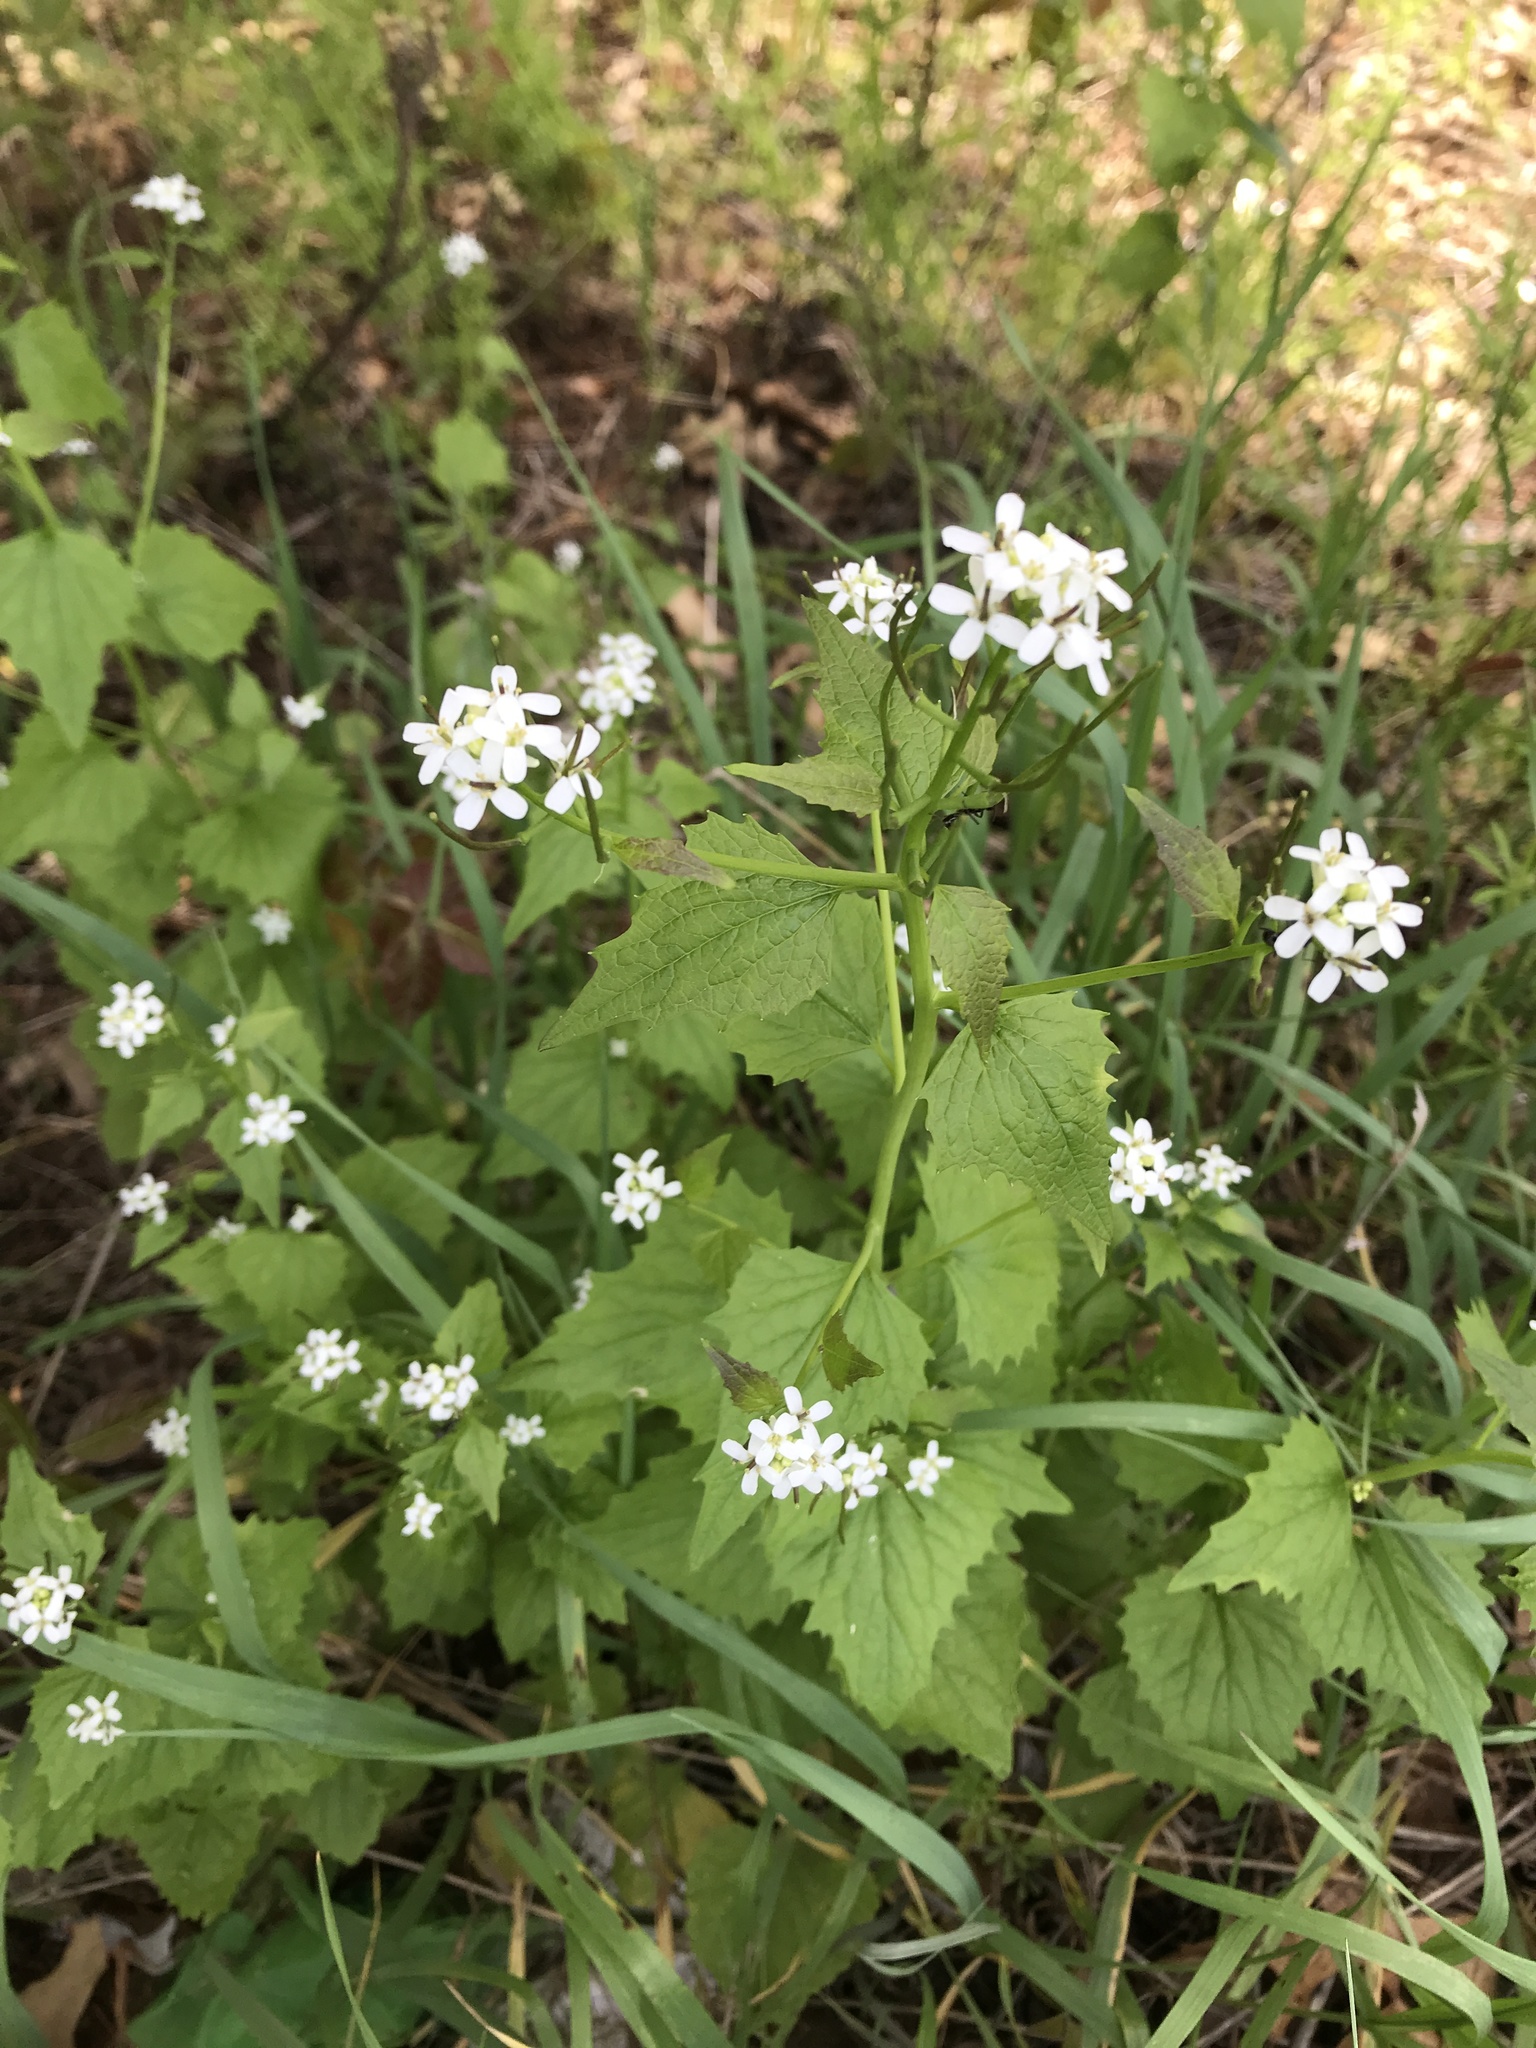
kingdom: Plantae
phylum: Tracheophyta
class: Magnoliopsida
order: Brassicales
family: Brassicaceae
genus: Alliaria
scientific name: Alliaria petiolata
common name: Garlic mustard
